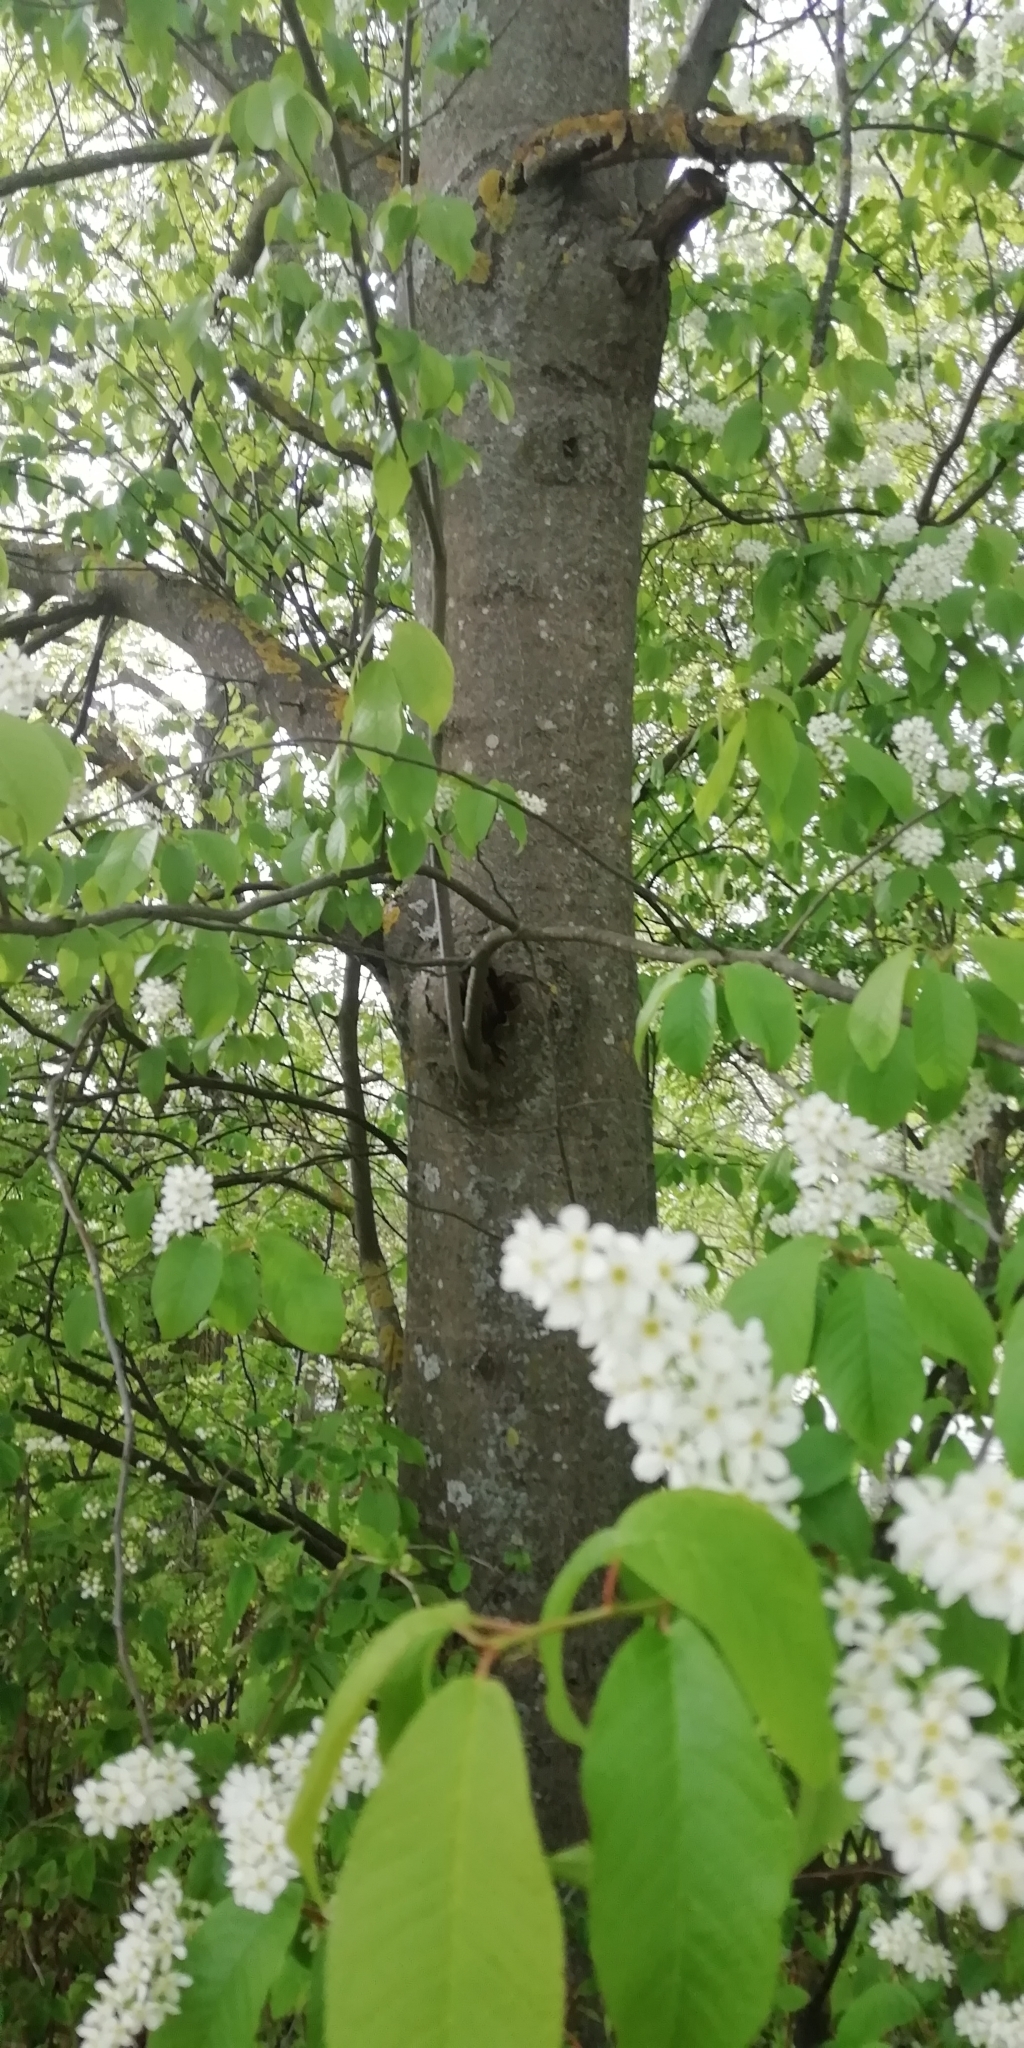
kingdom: Plantae
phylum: Tracheophyta
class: Magnoliopsida
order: Rosales
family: Rosaceae
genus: Prunus
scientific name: Prunus padus
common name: Bird cherry
